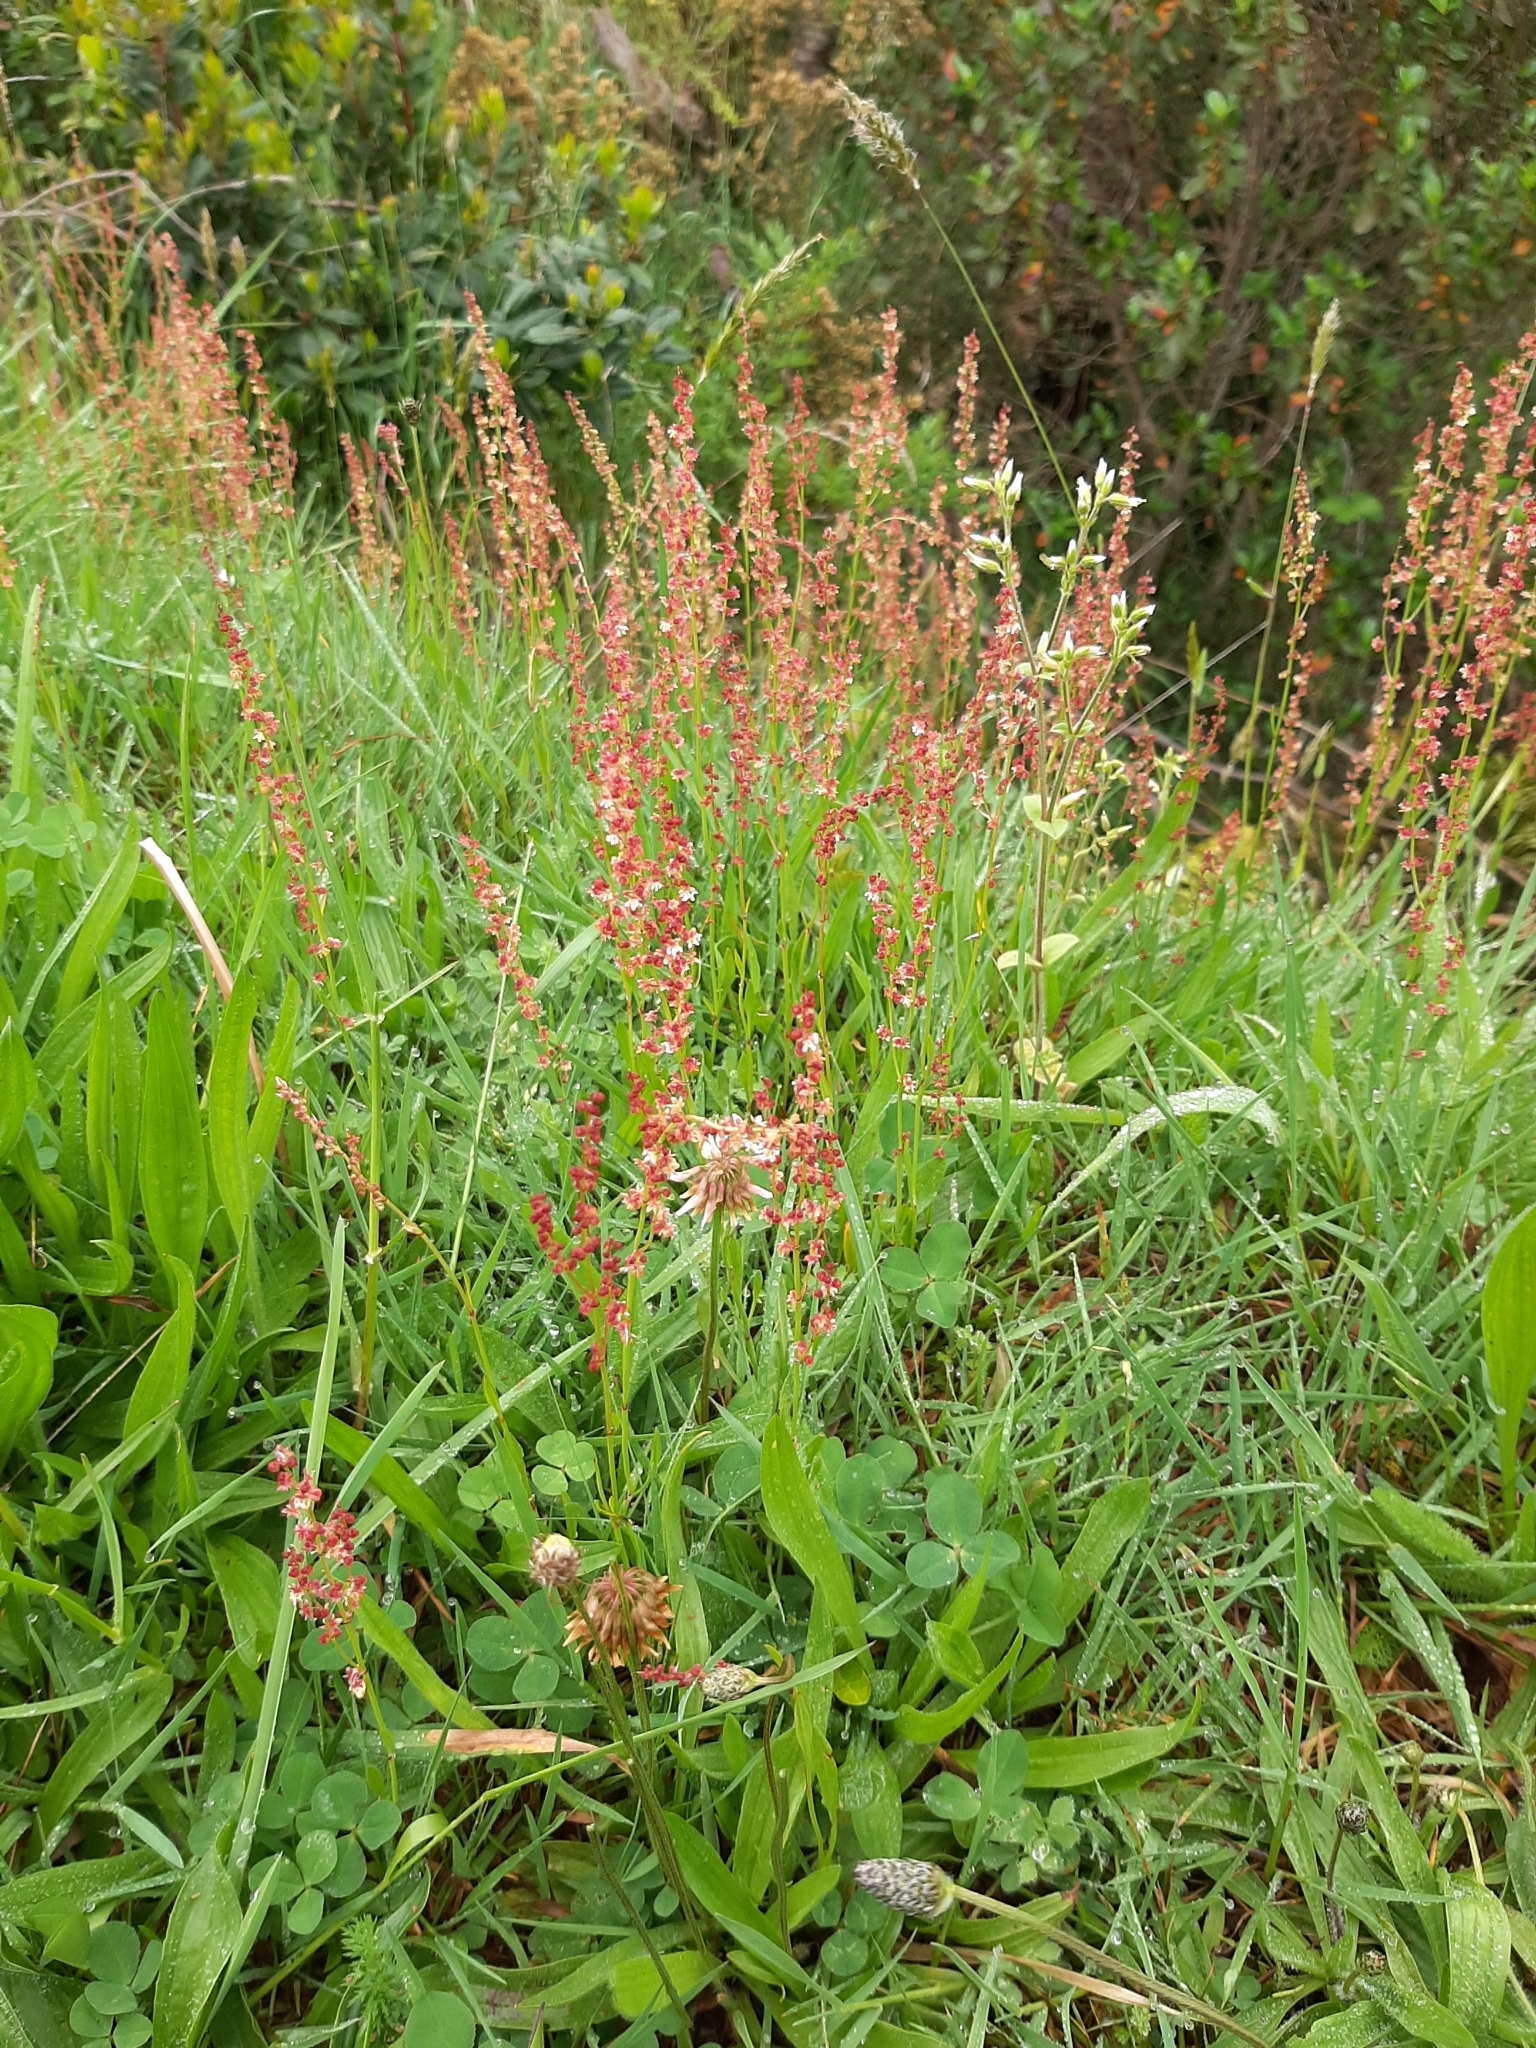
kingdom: Plantae
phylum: Tracheophyta
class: Magnoliopsida
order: Caryophyllales
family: Polygonaceae
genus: Rumex
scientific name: Rumex acetosella
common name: Common sheep sorrel
